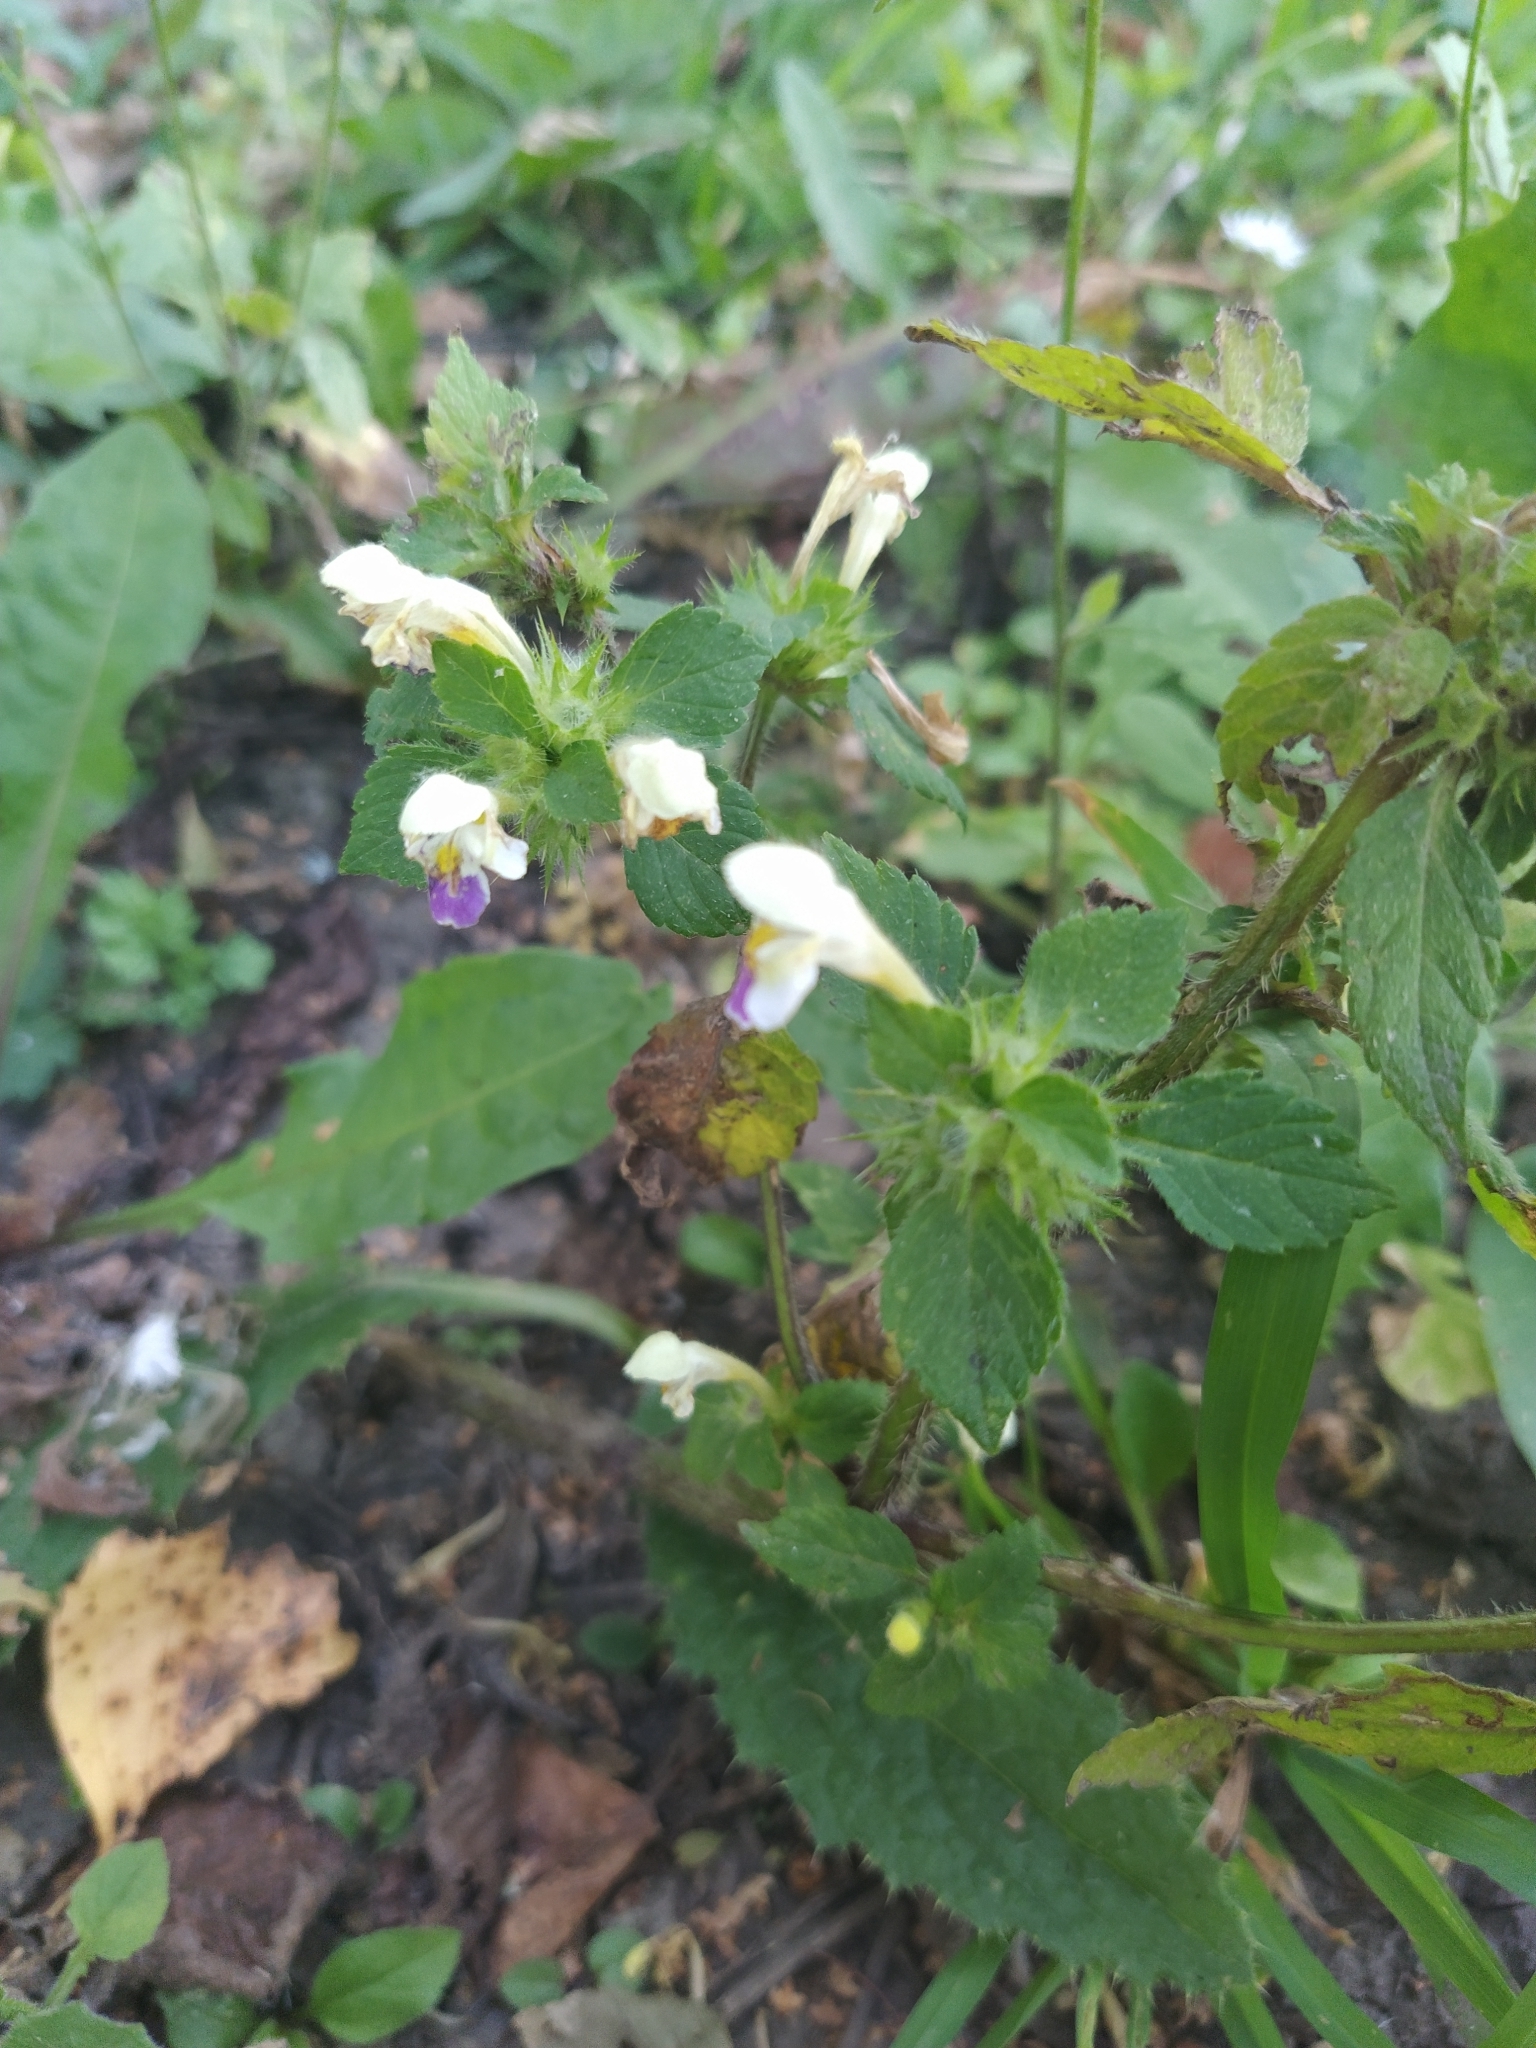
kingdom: Plantae
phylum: Tracheophyta
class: Magnoliopsida
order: Lamiales
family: Lamiaceae
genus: Galeopsis
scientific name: Galeopsis speciosa
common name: Large-flowered hemp-nettle
